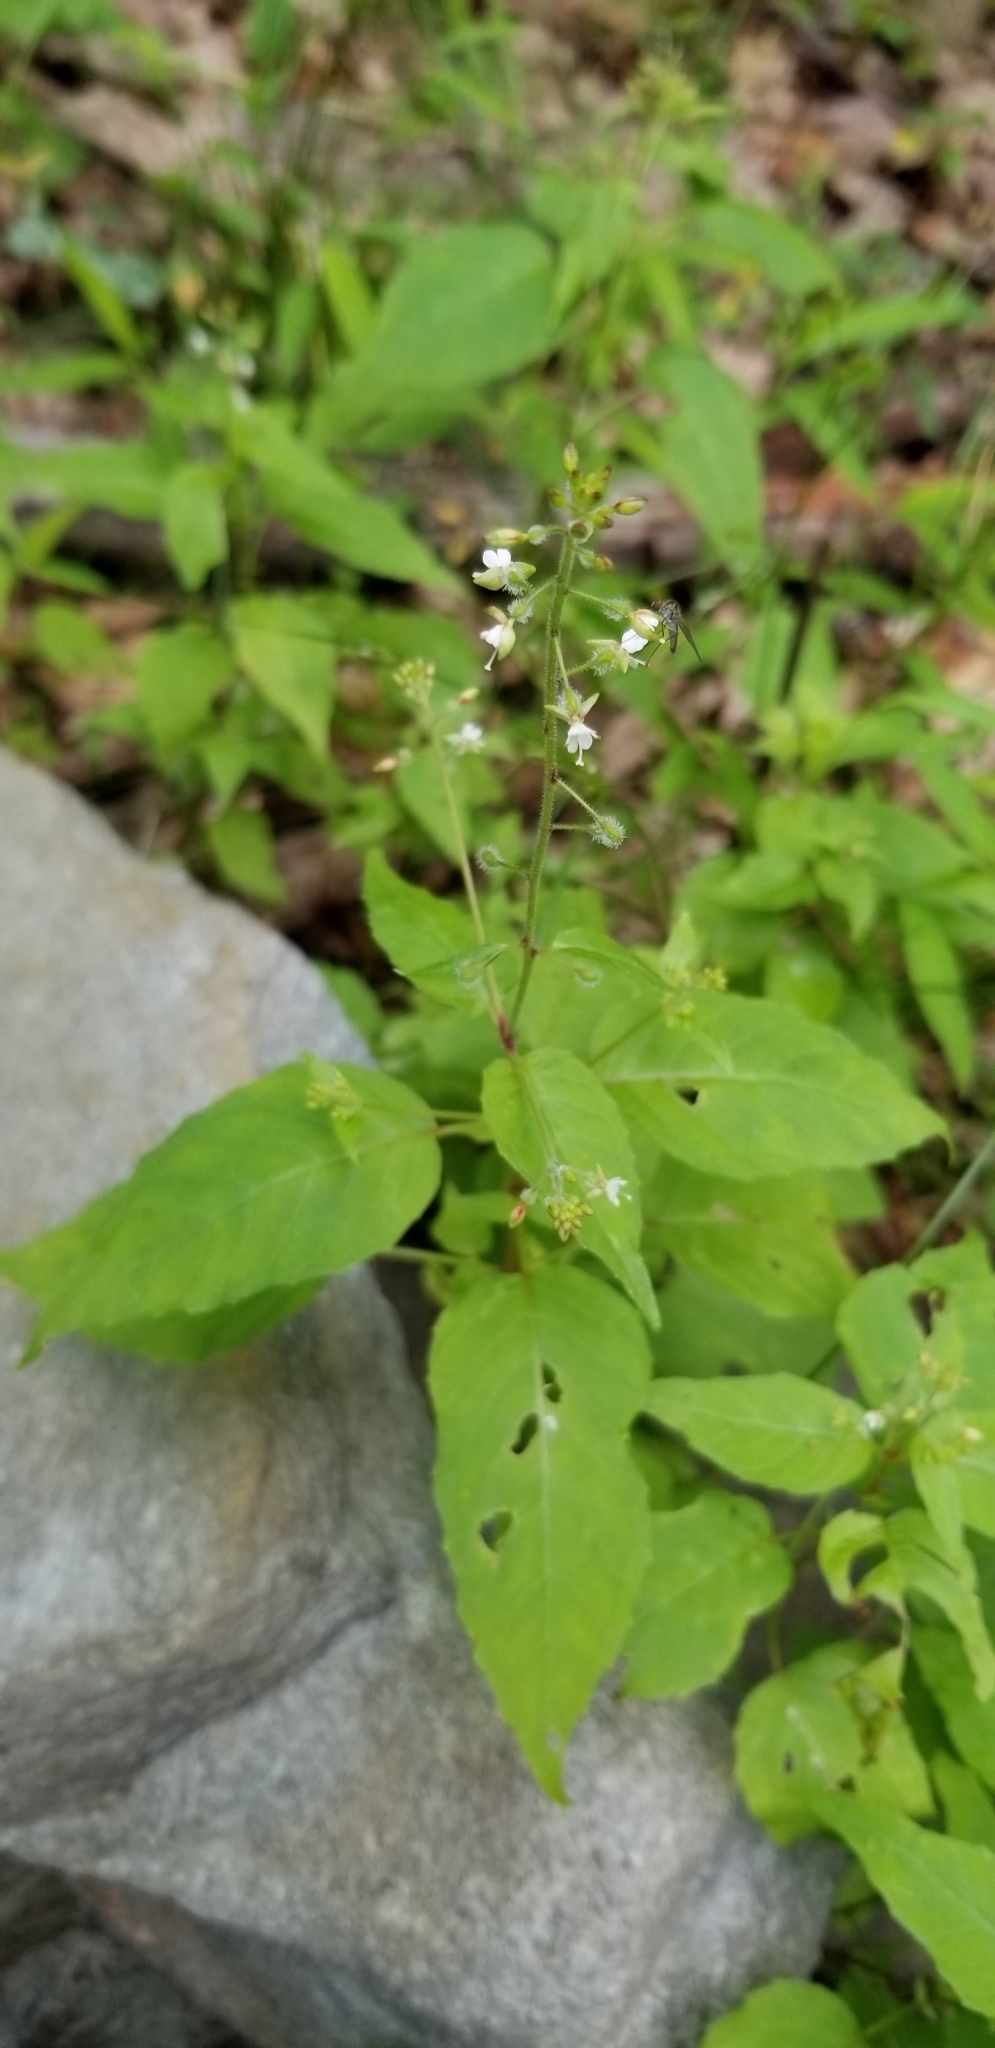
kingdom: Plantae
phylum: Tracheophyta
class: Magnoliopsida
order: Myrtales
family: Onagraceae
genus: Circaea
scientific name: Circaea canadensis
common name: Broad-leaved enchanter's nightshade
